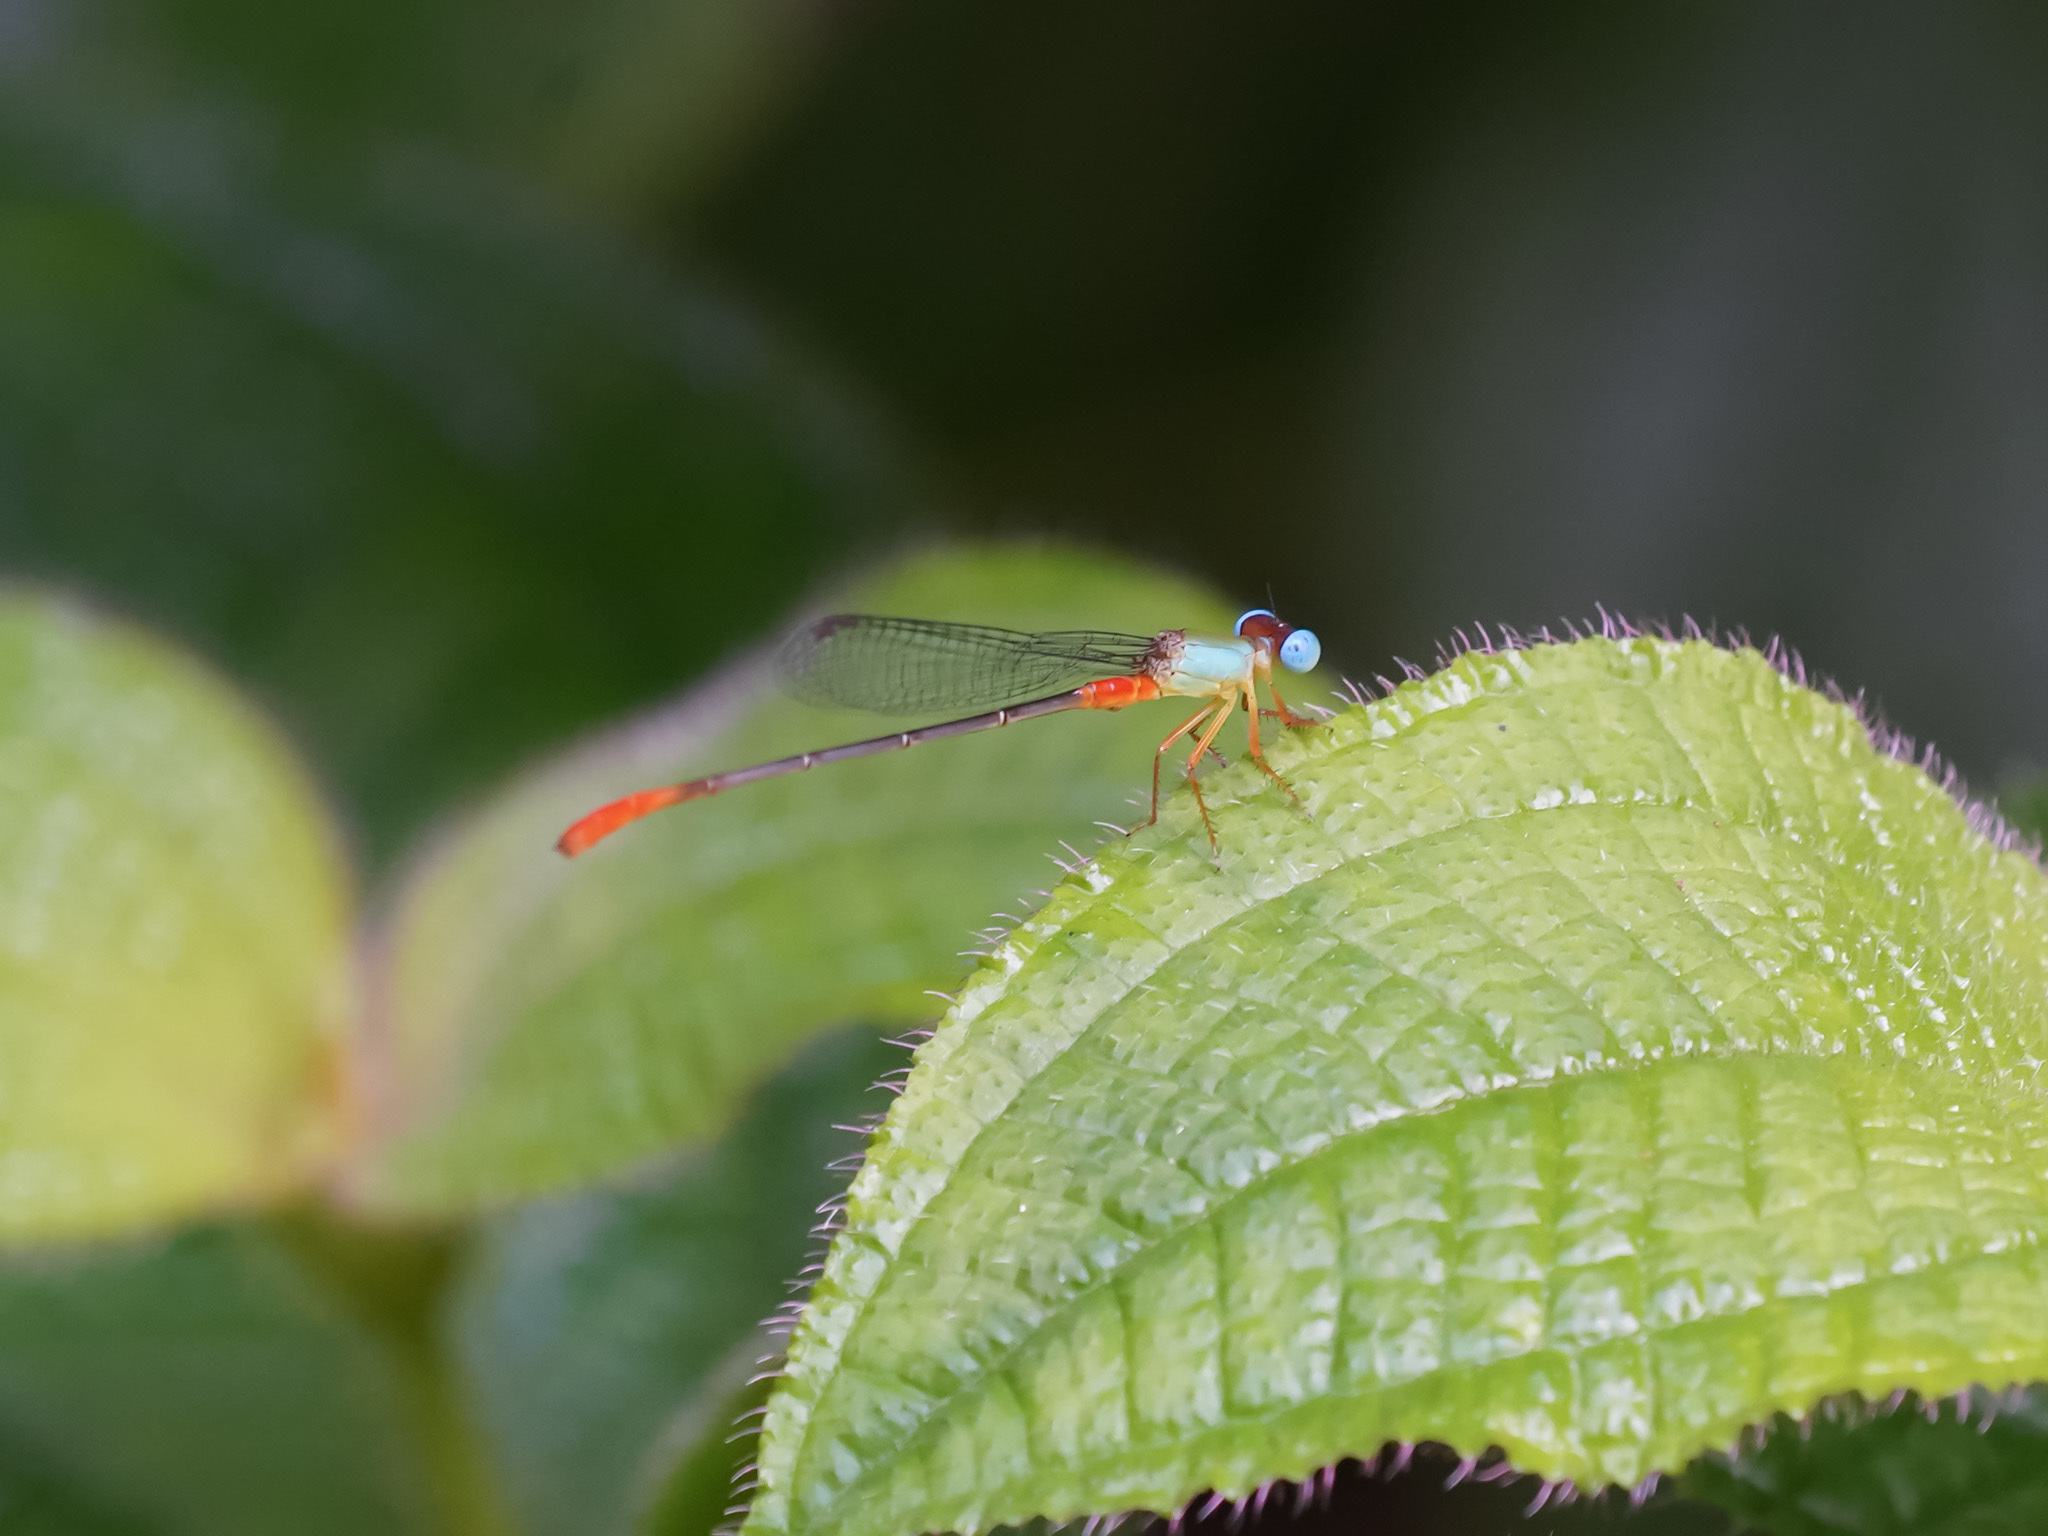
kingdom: Animalia
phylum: Arthropoda
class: Insecta
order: Odonata
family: Coenagrionidae
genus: Ceriagrion
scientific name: Ceriagrion cerinorubellum
